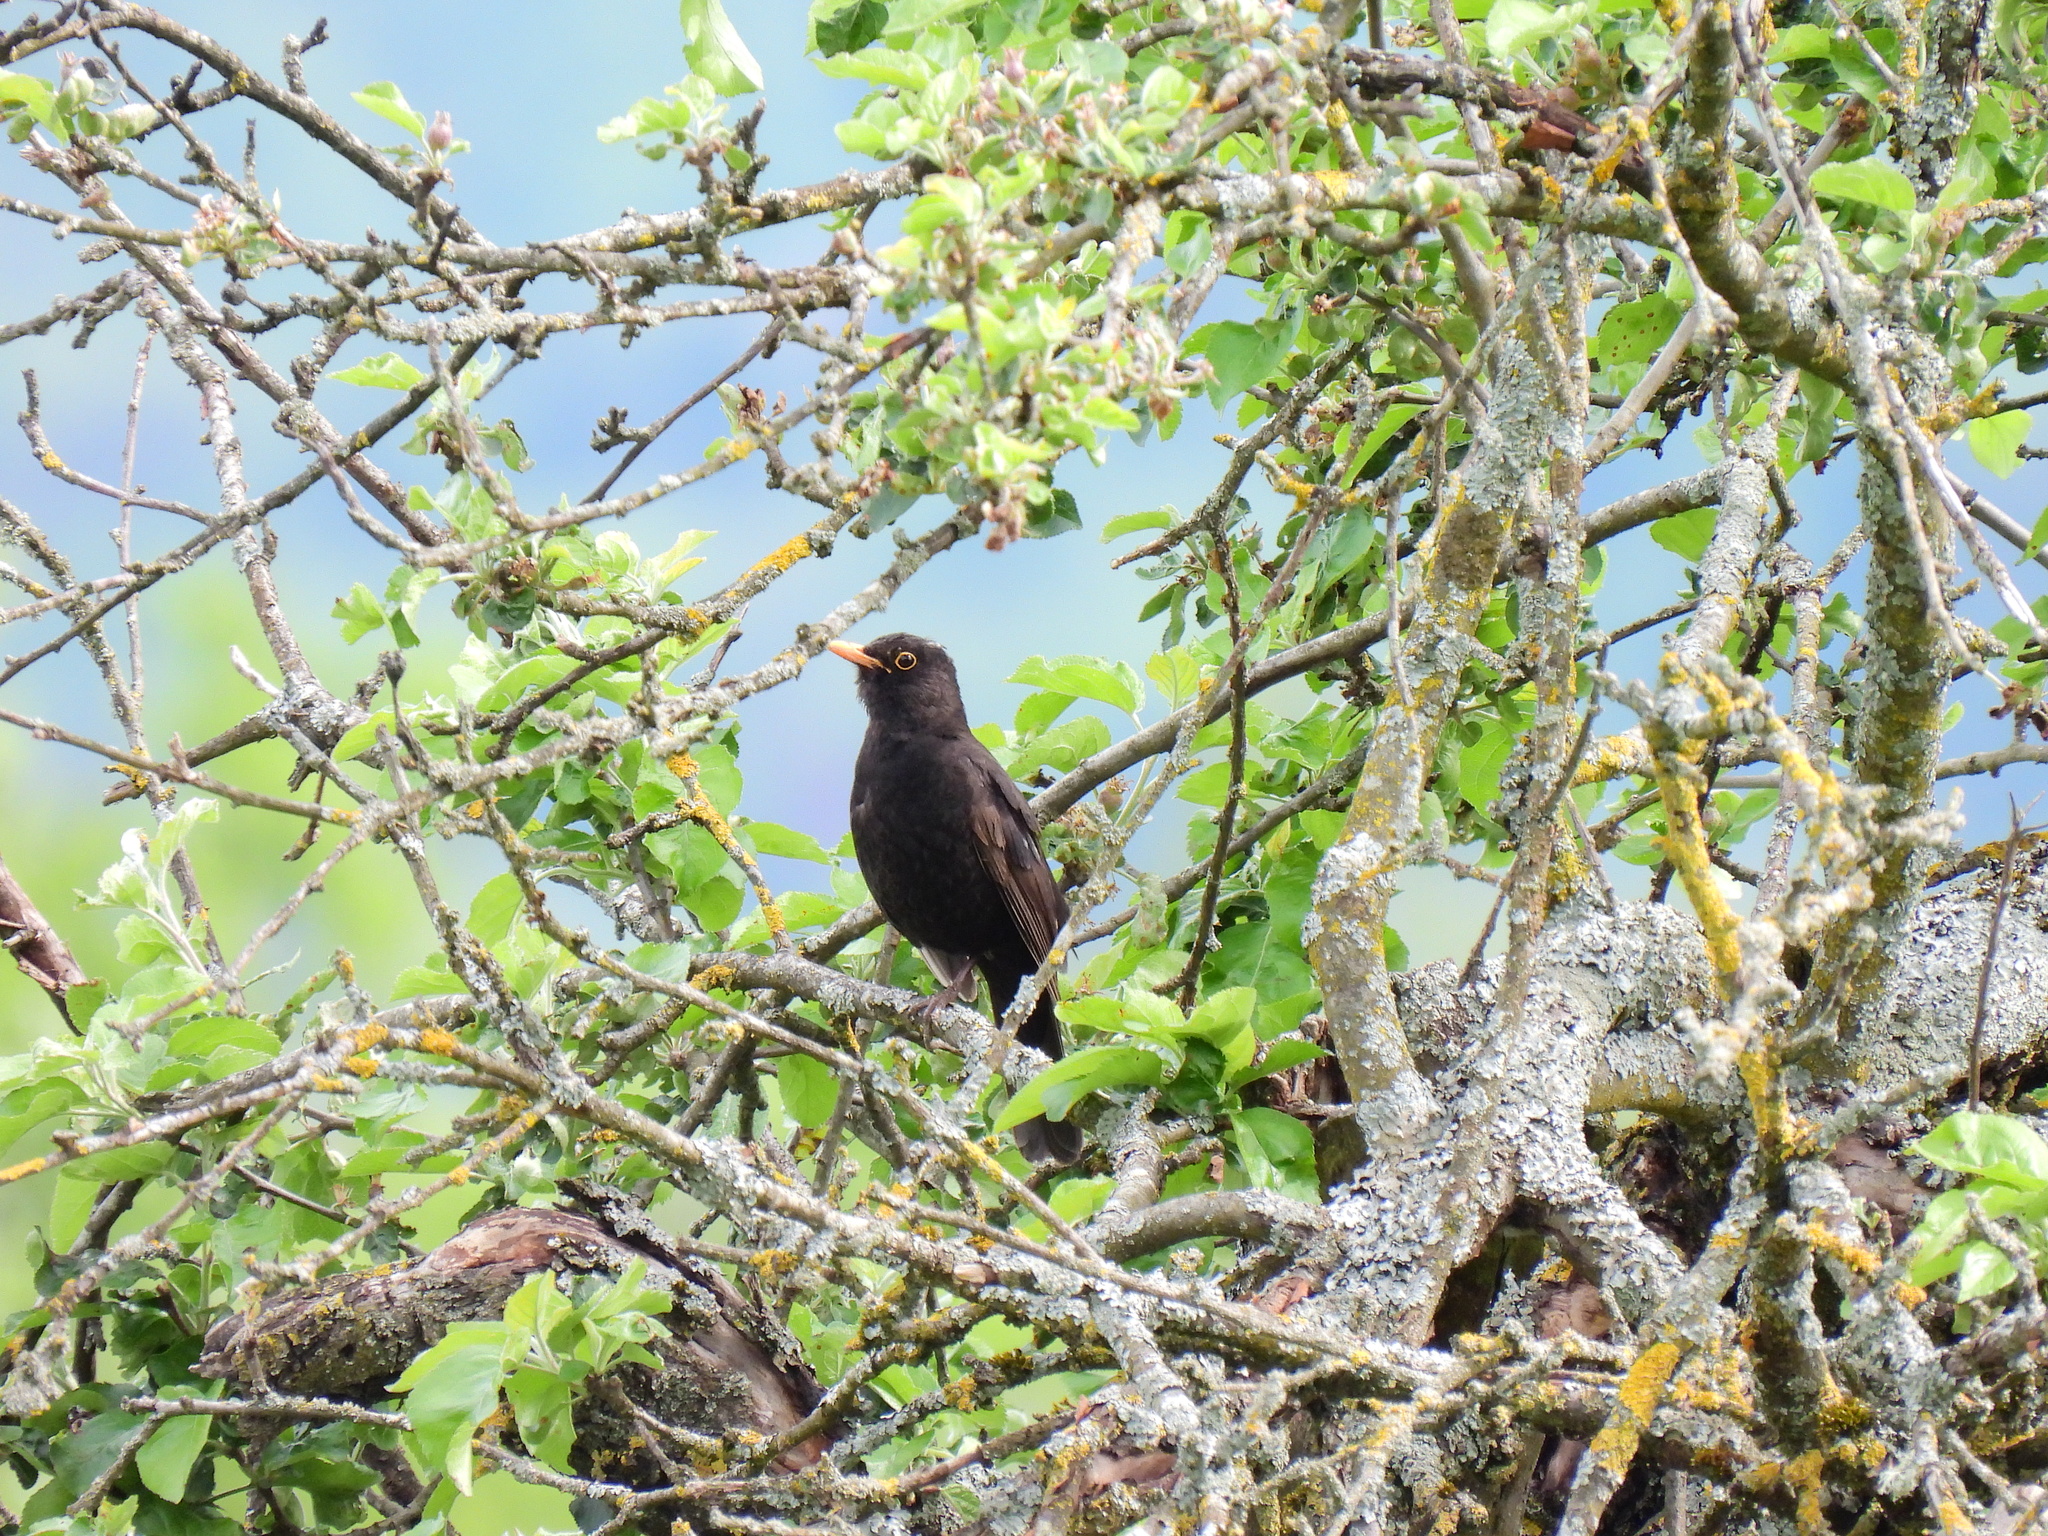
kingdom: Animalia
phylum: Chordata
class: Aves
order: Passeriformes
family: Turdidae
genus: Turdus
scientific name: Turdus merula
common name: Common blackbird
